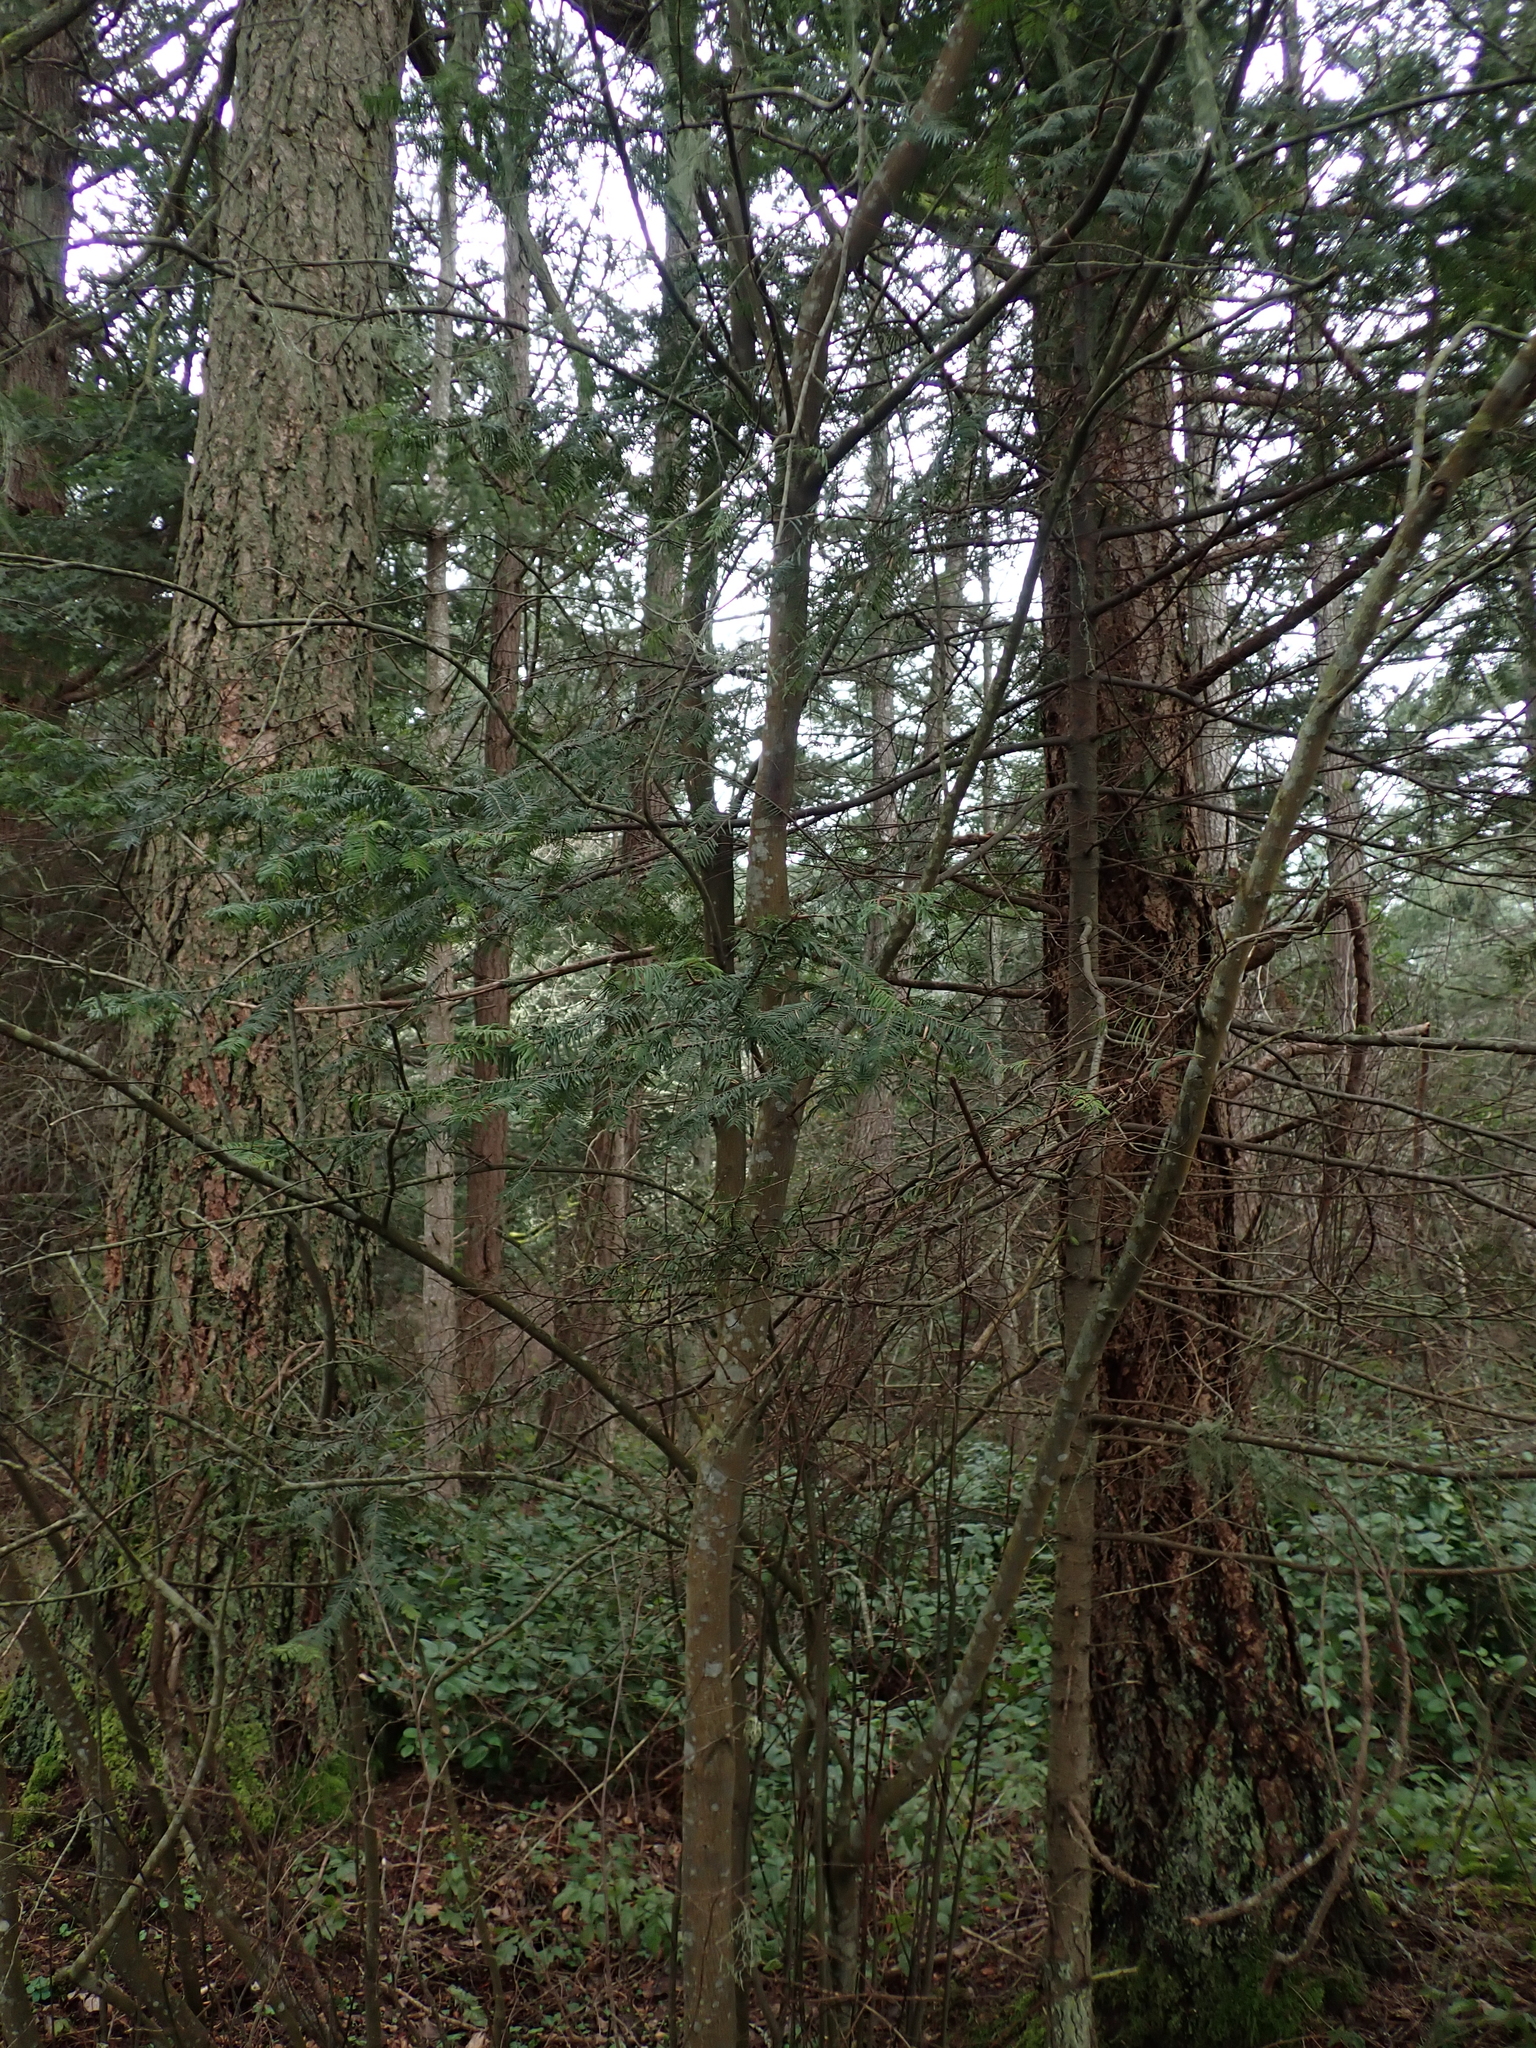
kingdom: Plantae
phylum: Tracheophyta
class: Pinopsida
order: Pinales
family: Pinaceae
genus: Abies
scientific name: Abies grandis
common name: Giant fir
